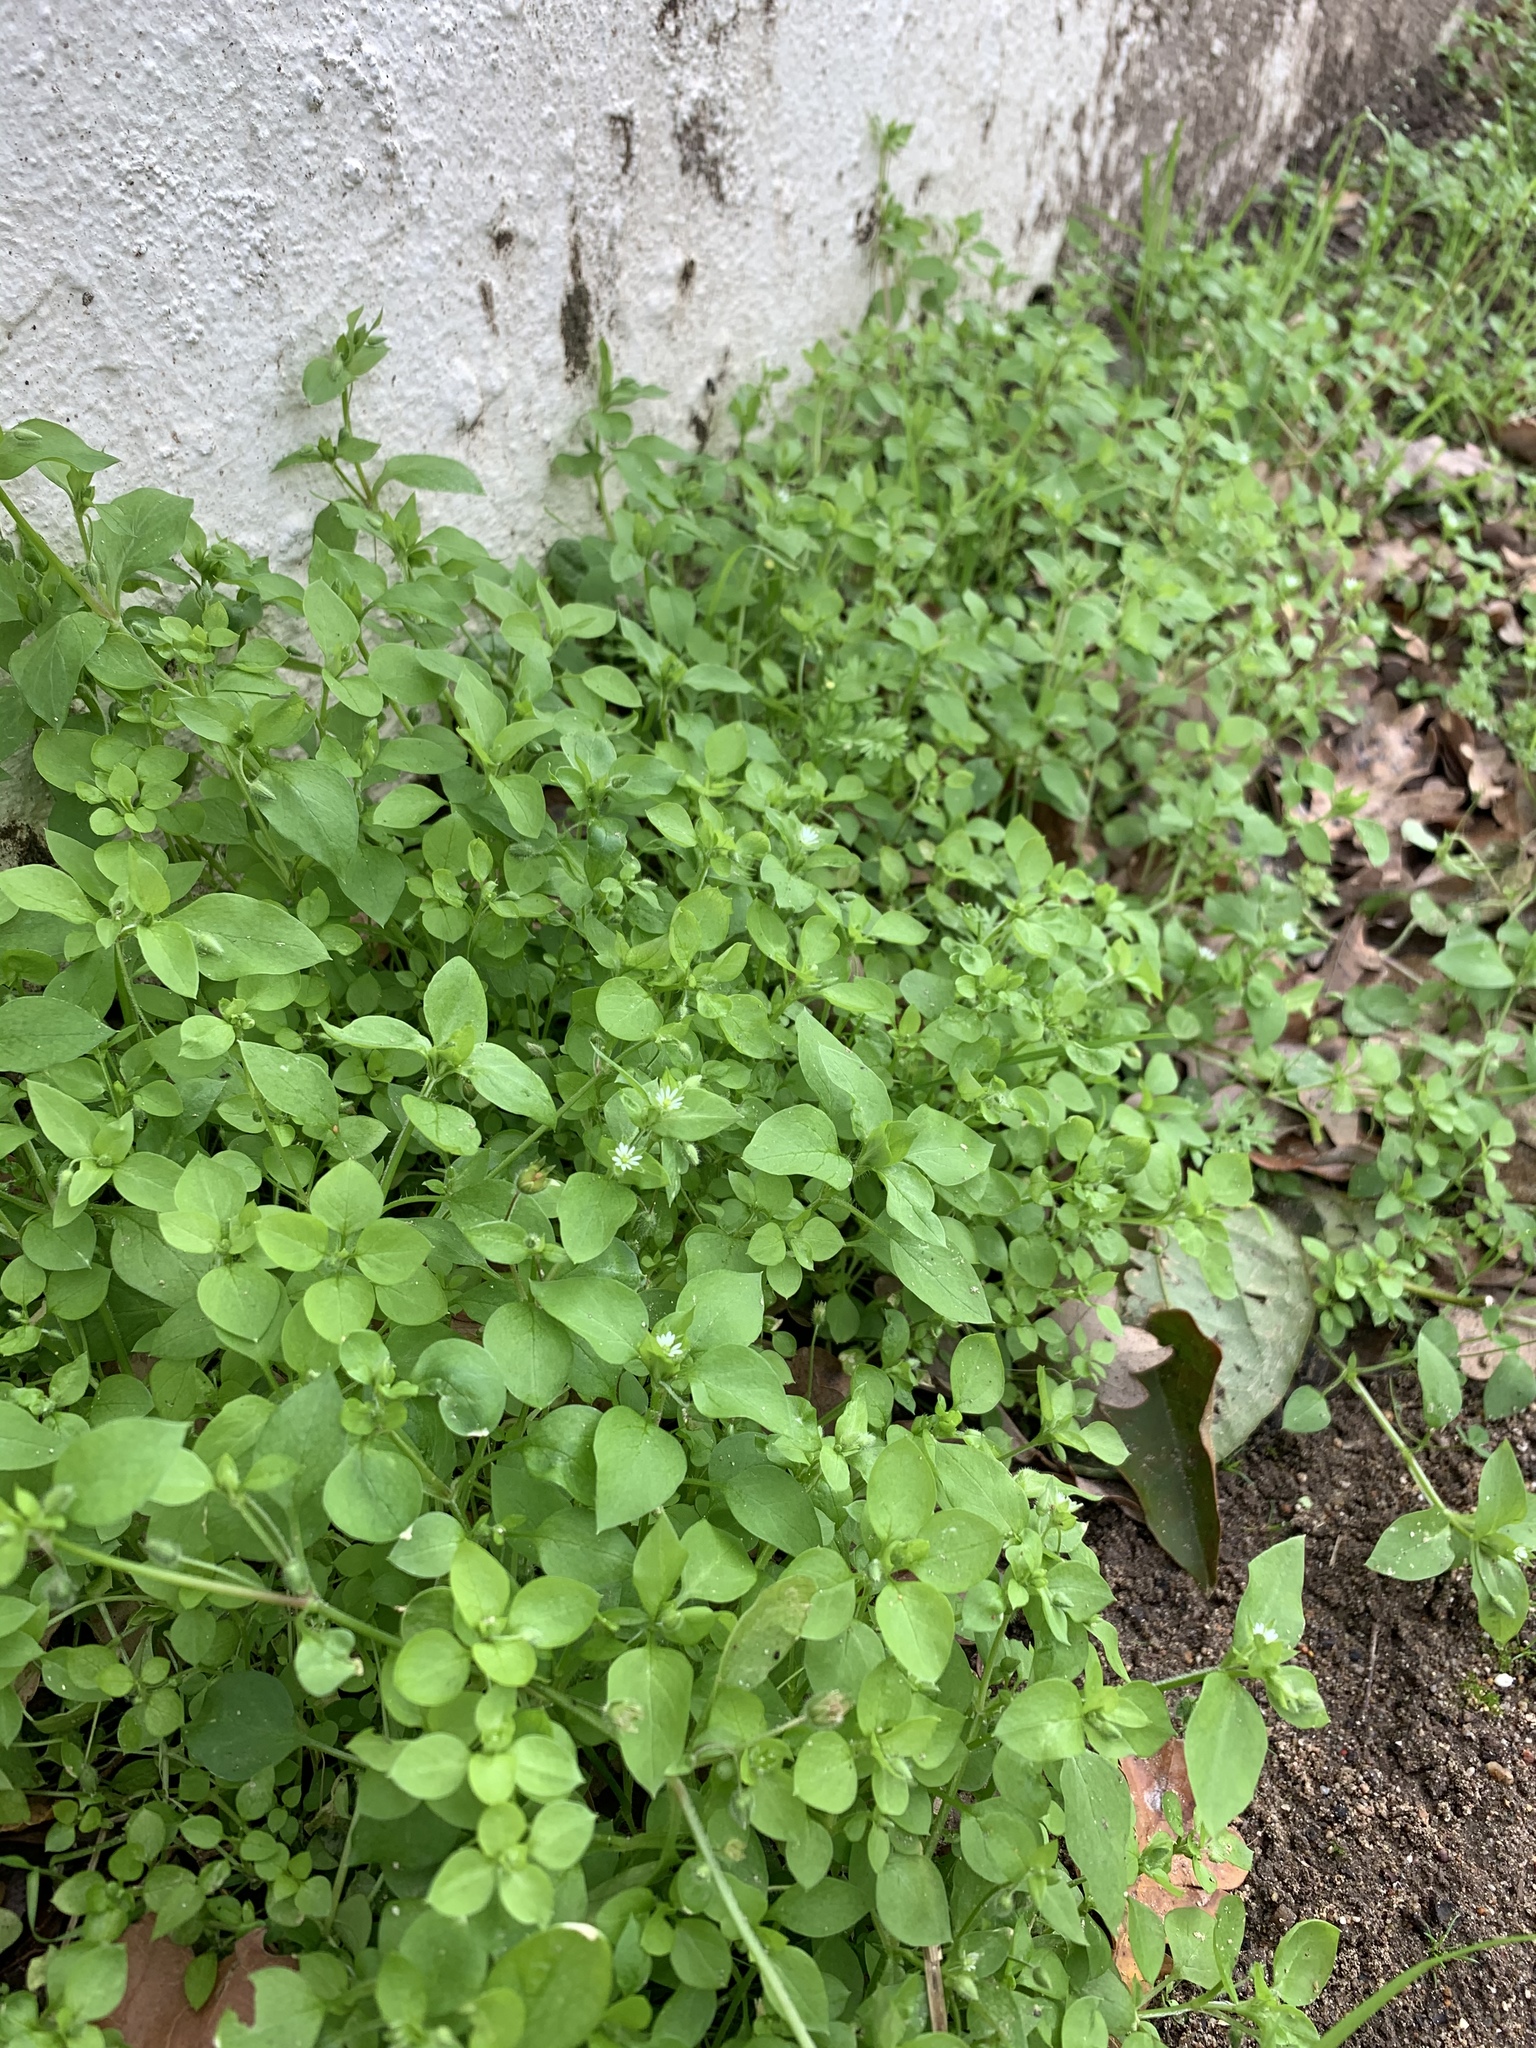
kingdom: Plantae
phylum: Tracheophyta
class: Magnoliopsida
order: Caryophyllales
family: Caryophyllaceae
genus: Stellaria
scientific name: Stellaria media
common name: Common chickweed
